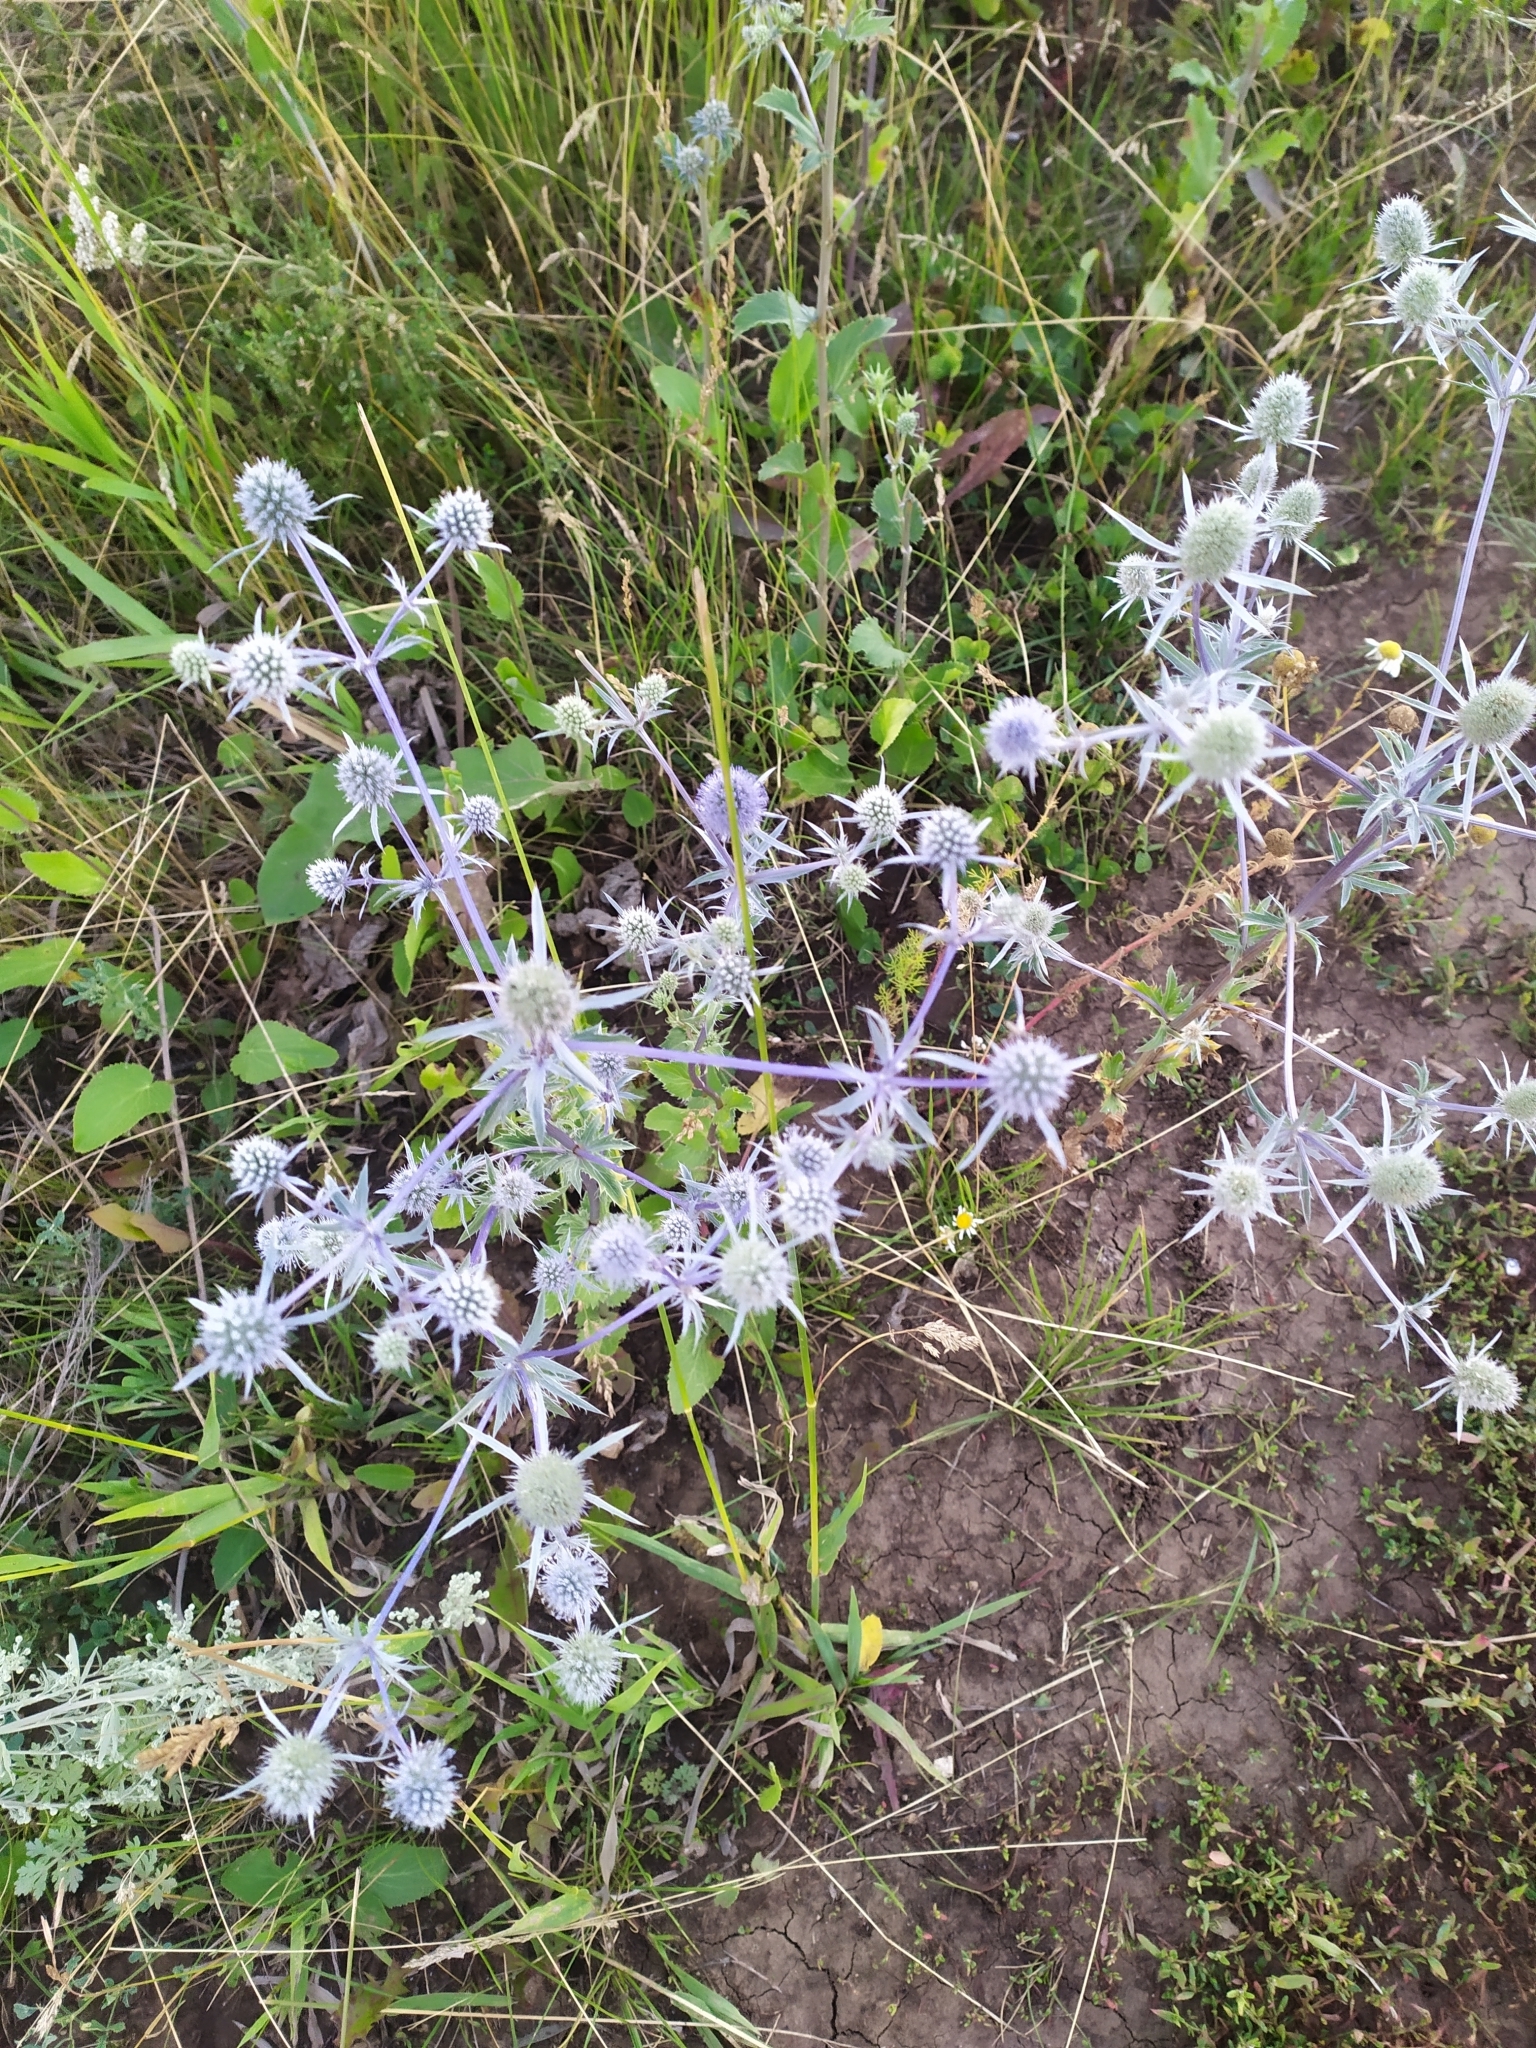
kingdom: Plantae
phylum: Tracheophyta
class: Magnoliopsida
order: Apiales
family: Apiaceae
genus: Eryngium
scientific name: Eryngium planum
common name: Blue eryngo
